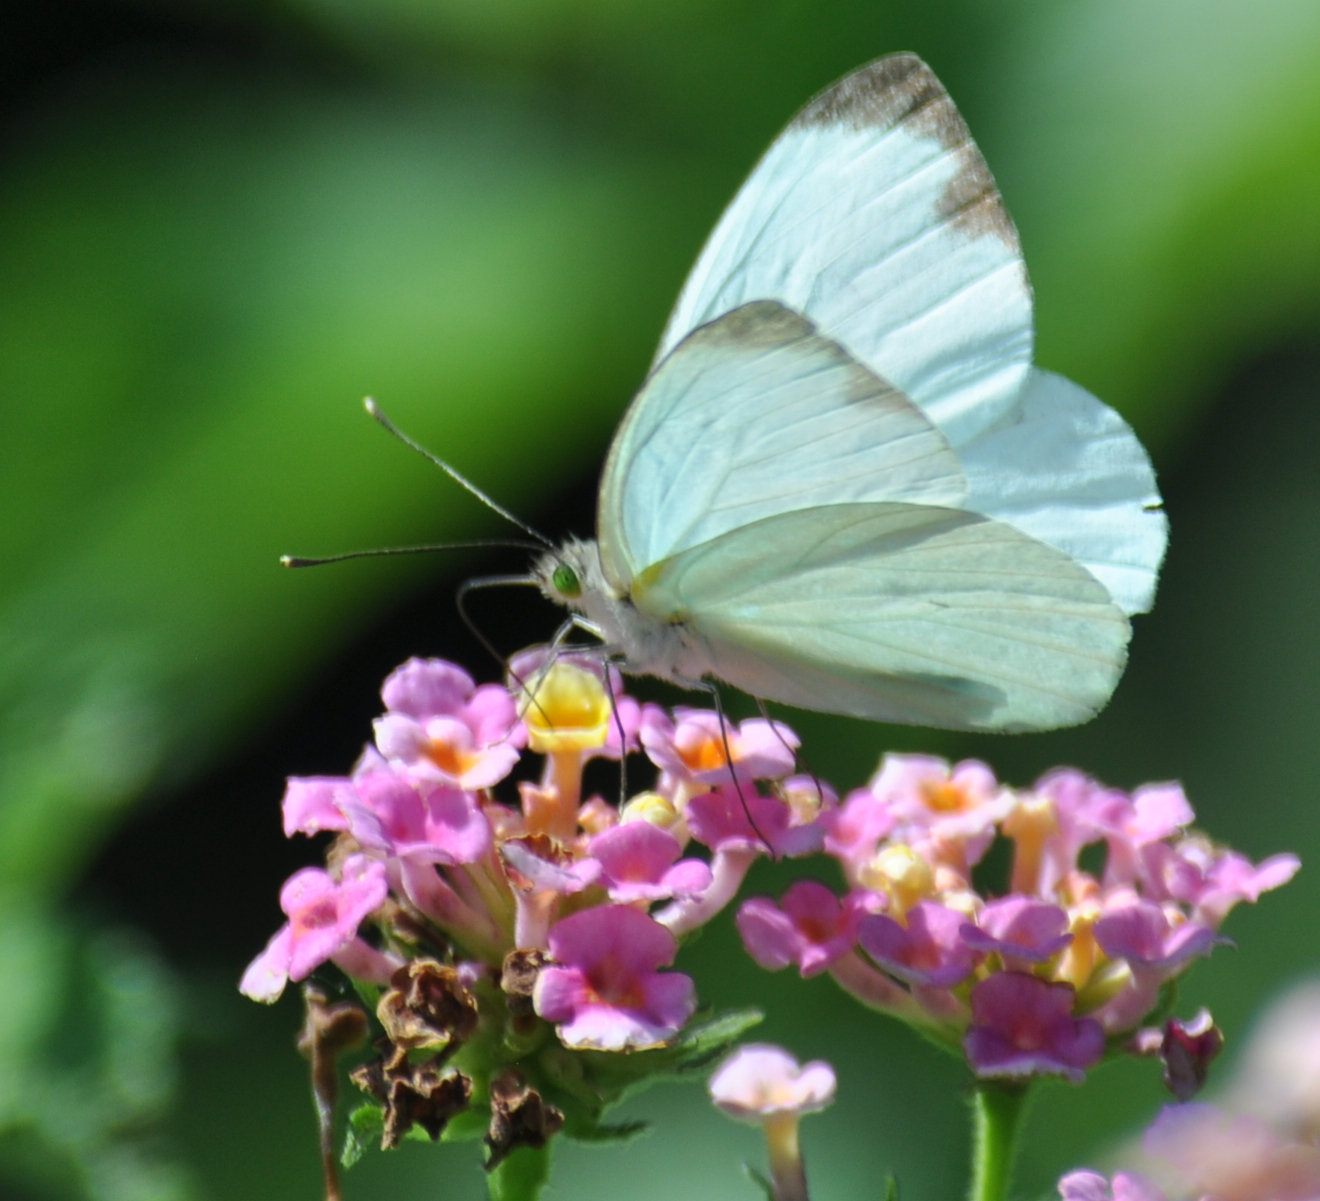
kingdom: Animalia
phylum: Arthropoda
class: Insecta
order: Lepidoptera
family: Pieridae
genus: Leptophobia
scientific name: Leptophobia aripa
